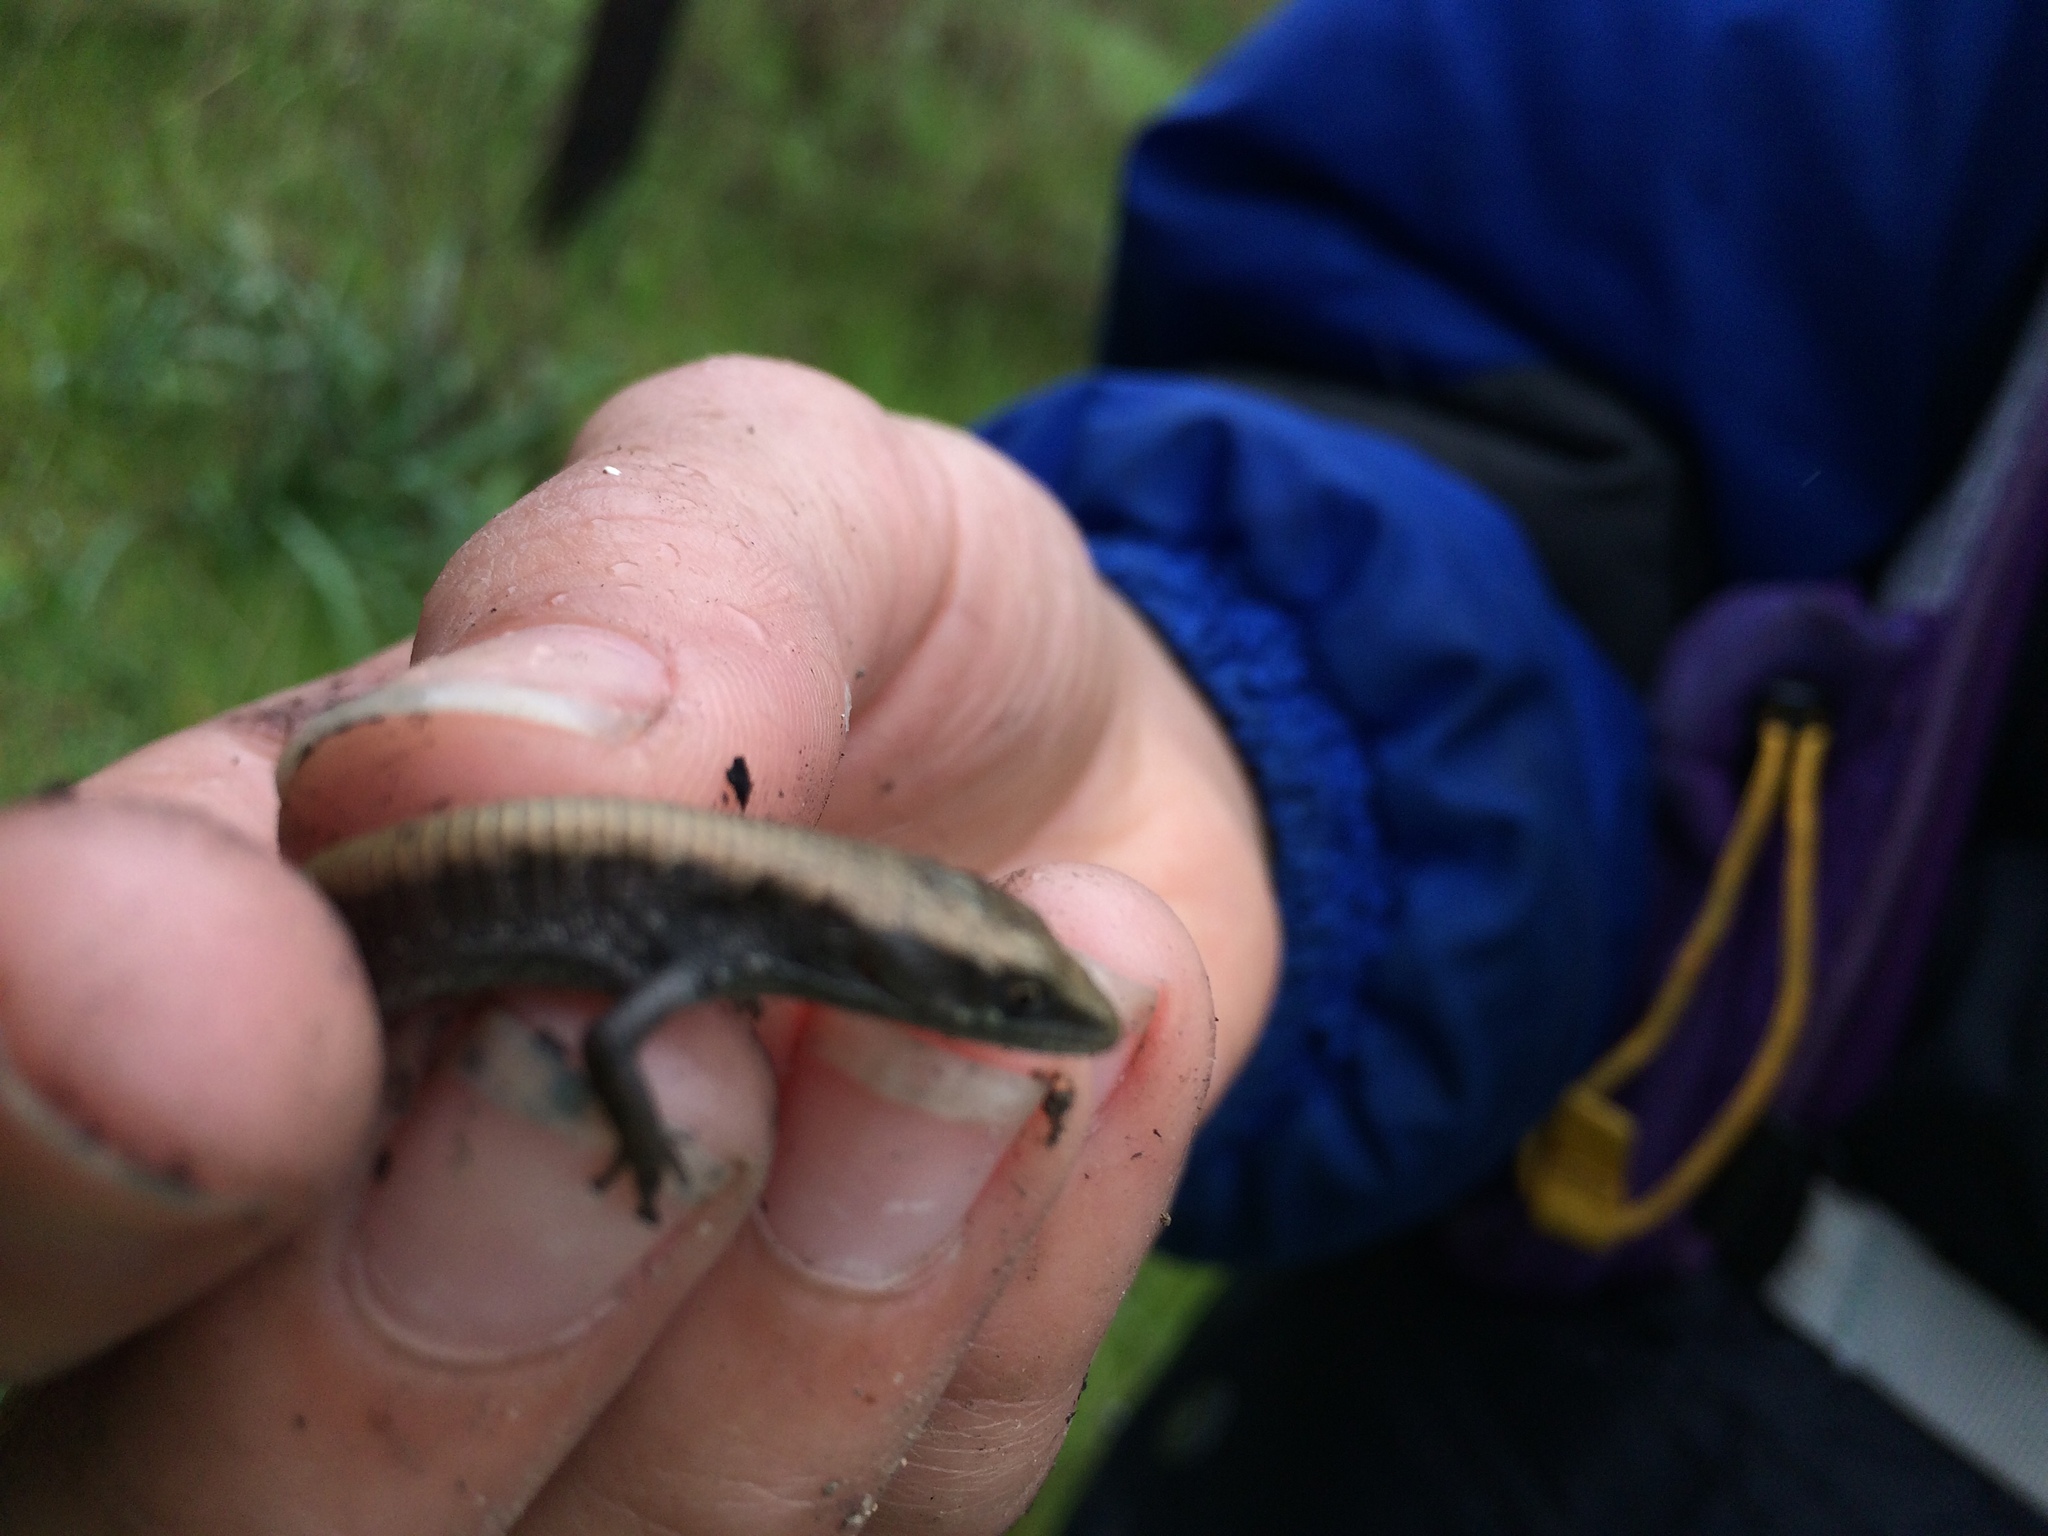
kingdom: Animalia
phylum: Chordata
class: Squamata
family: Anguidae
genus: Elgaria
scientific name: Elgaria multicarinata
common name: Southern alligator lizard
